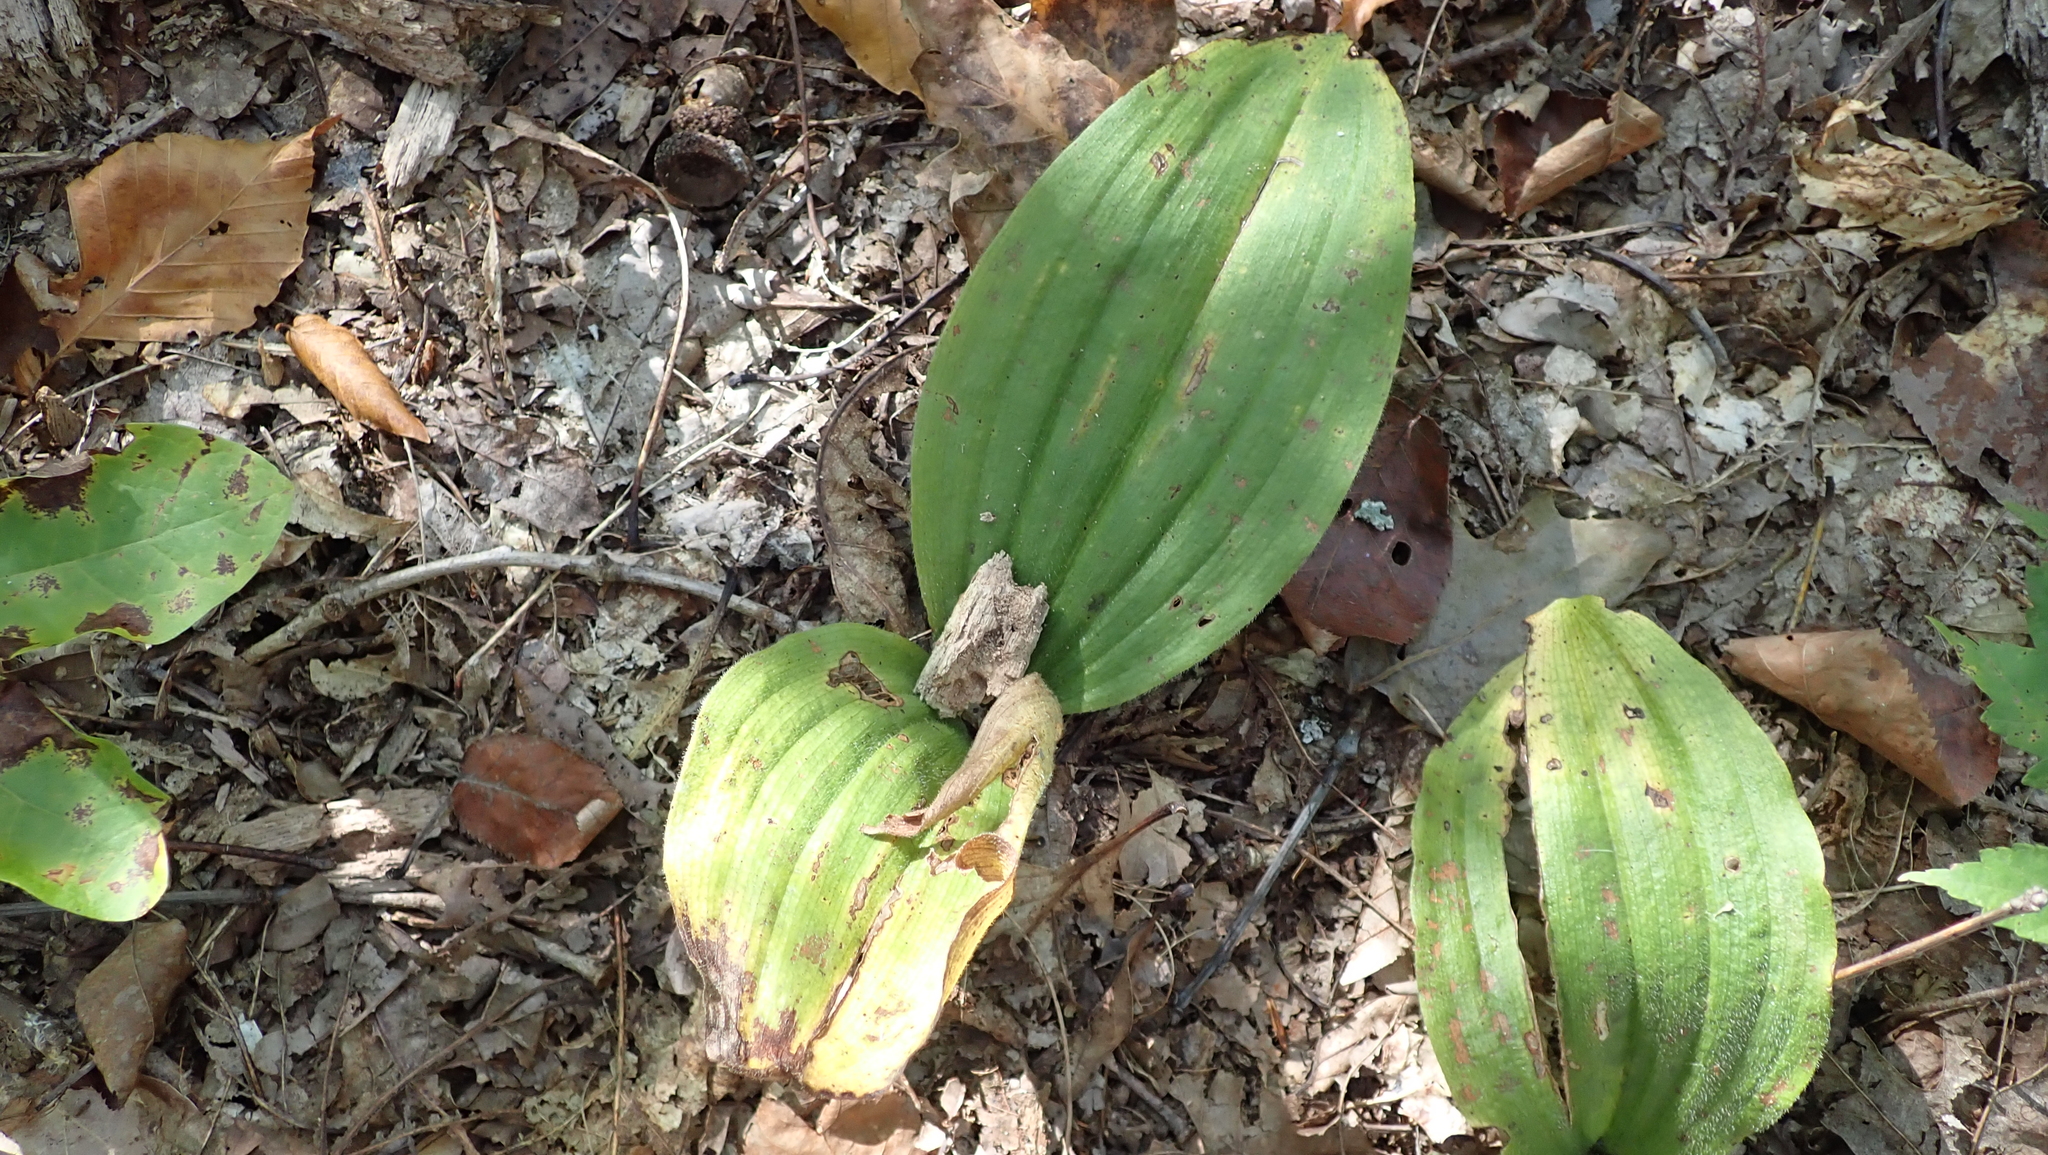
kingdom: Plantae
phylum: Tracheophyta
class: Liliopsida
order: Asparagales
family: Orchidaceae
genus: Cypripedium
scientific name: Cypripedium acaule
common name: Pink lady's-slipper
